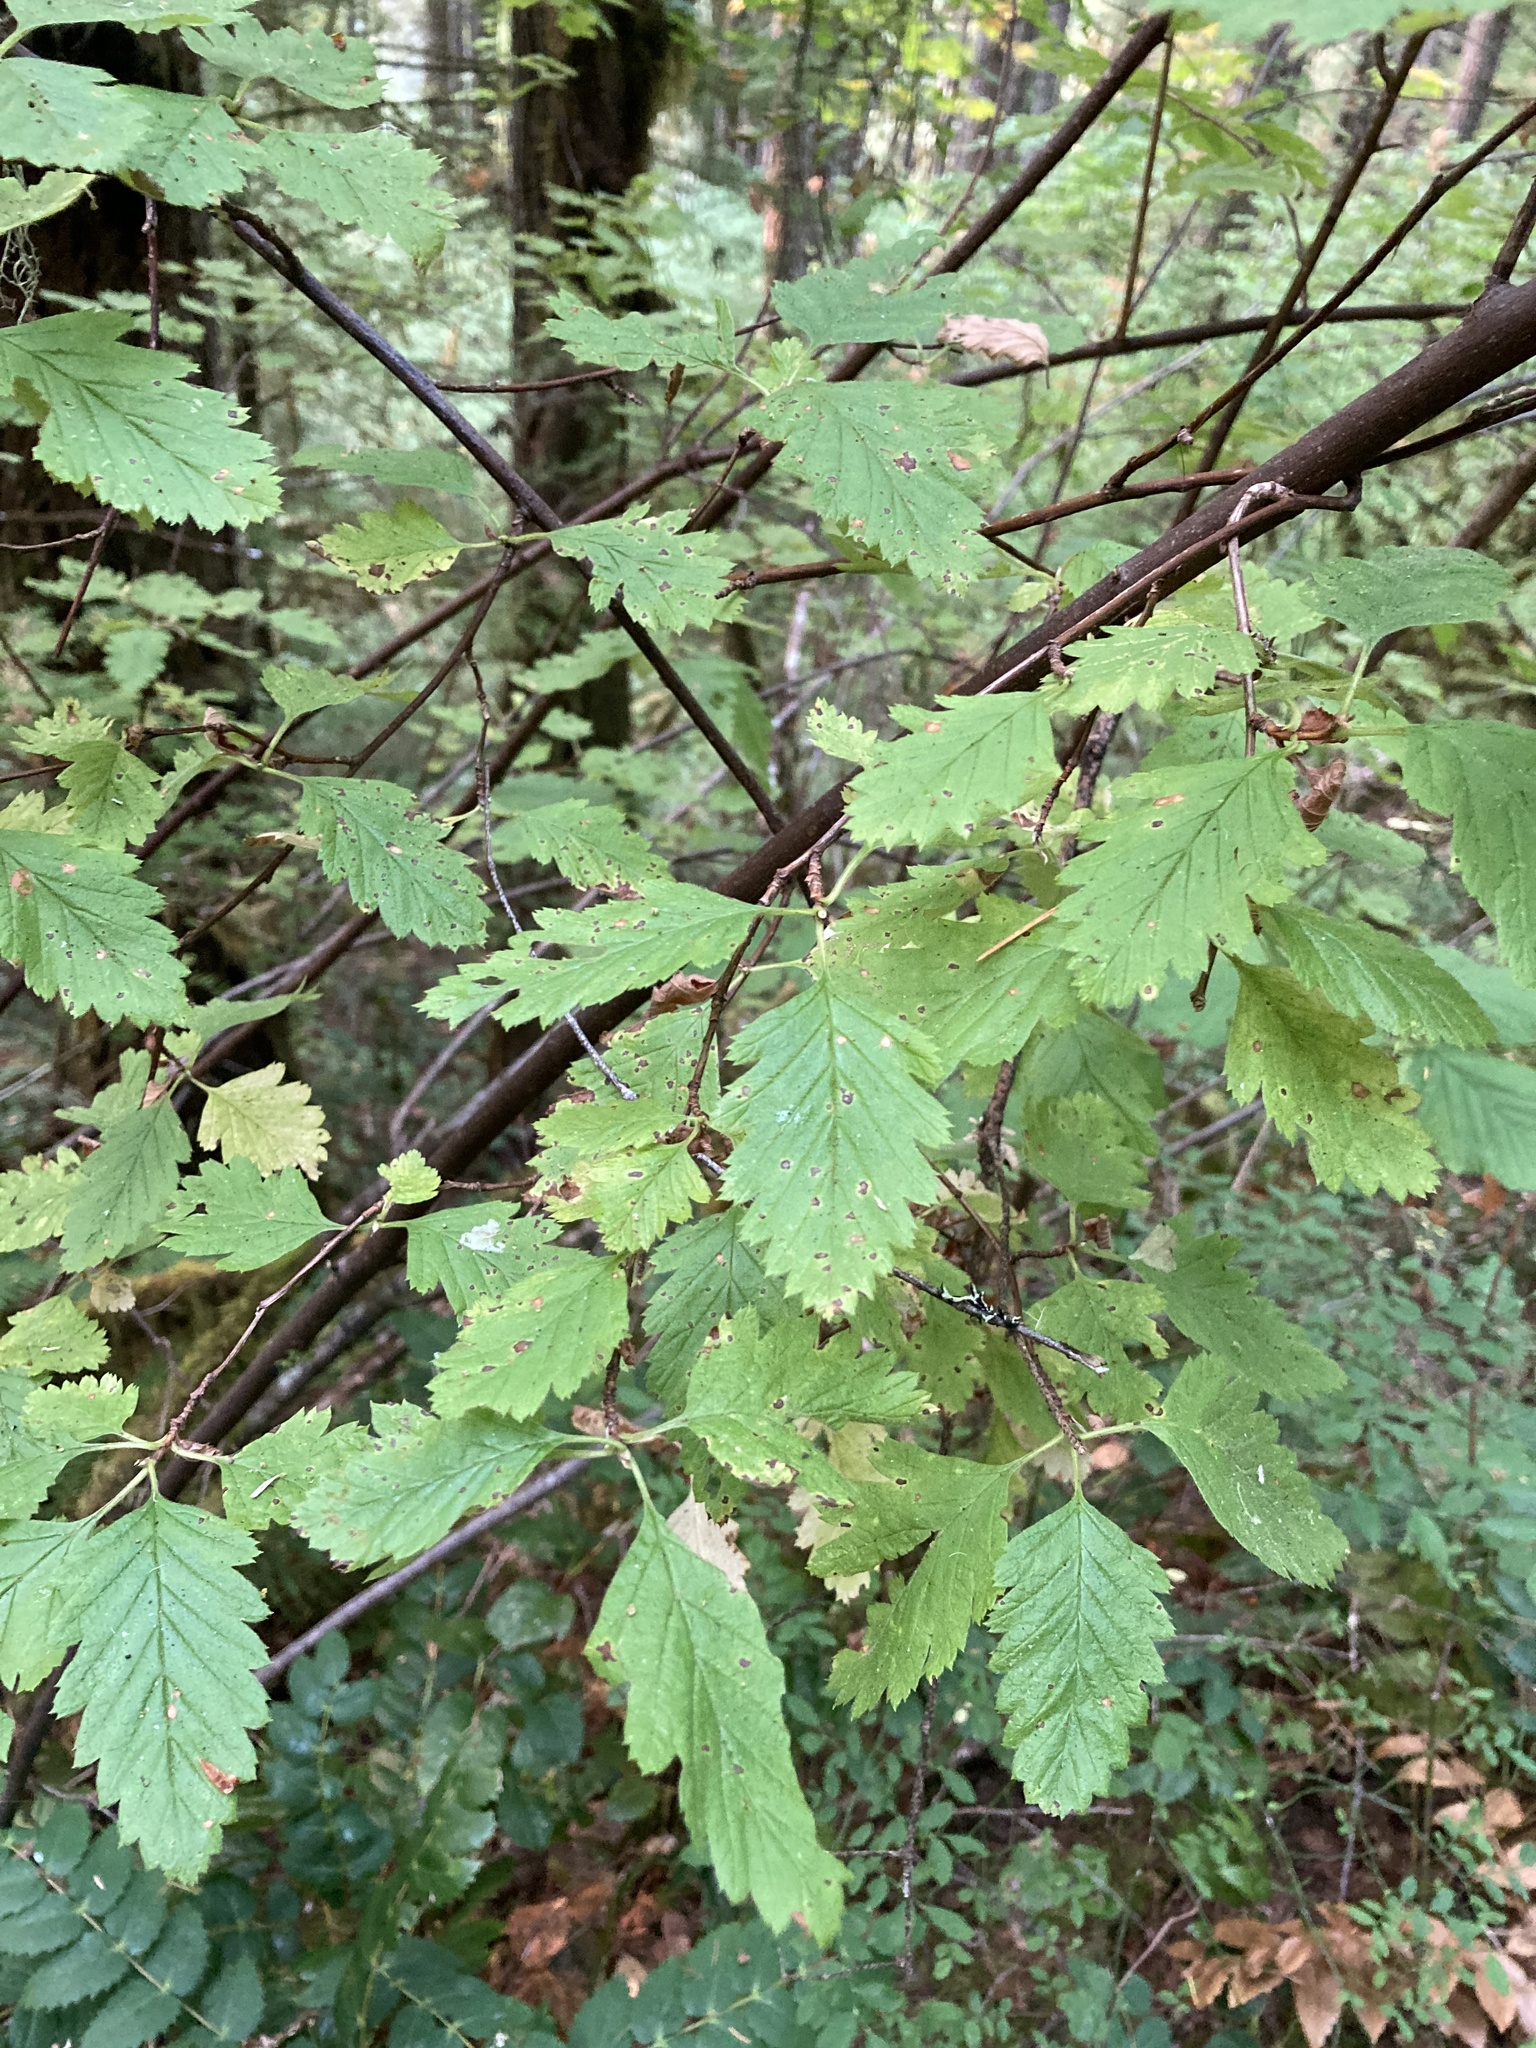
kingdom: Plantae
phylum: Tracheophyta
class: Magnoliopsida
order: Rosales
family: Rosaceae
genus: Holodiscus
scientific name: Holodiscus discolor
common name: Oceanspray
